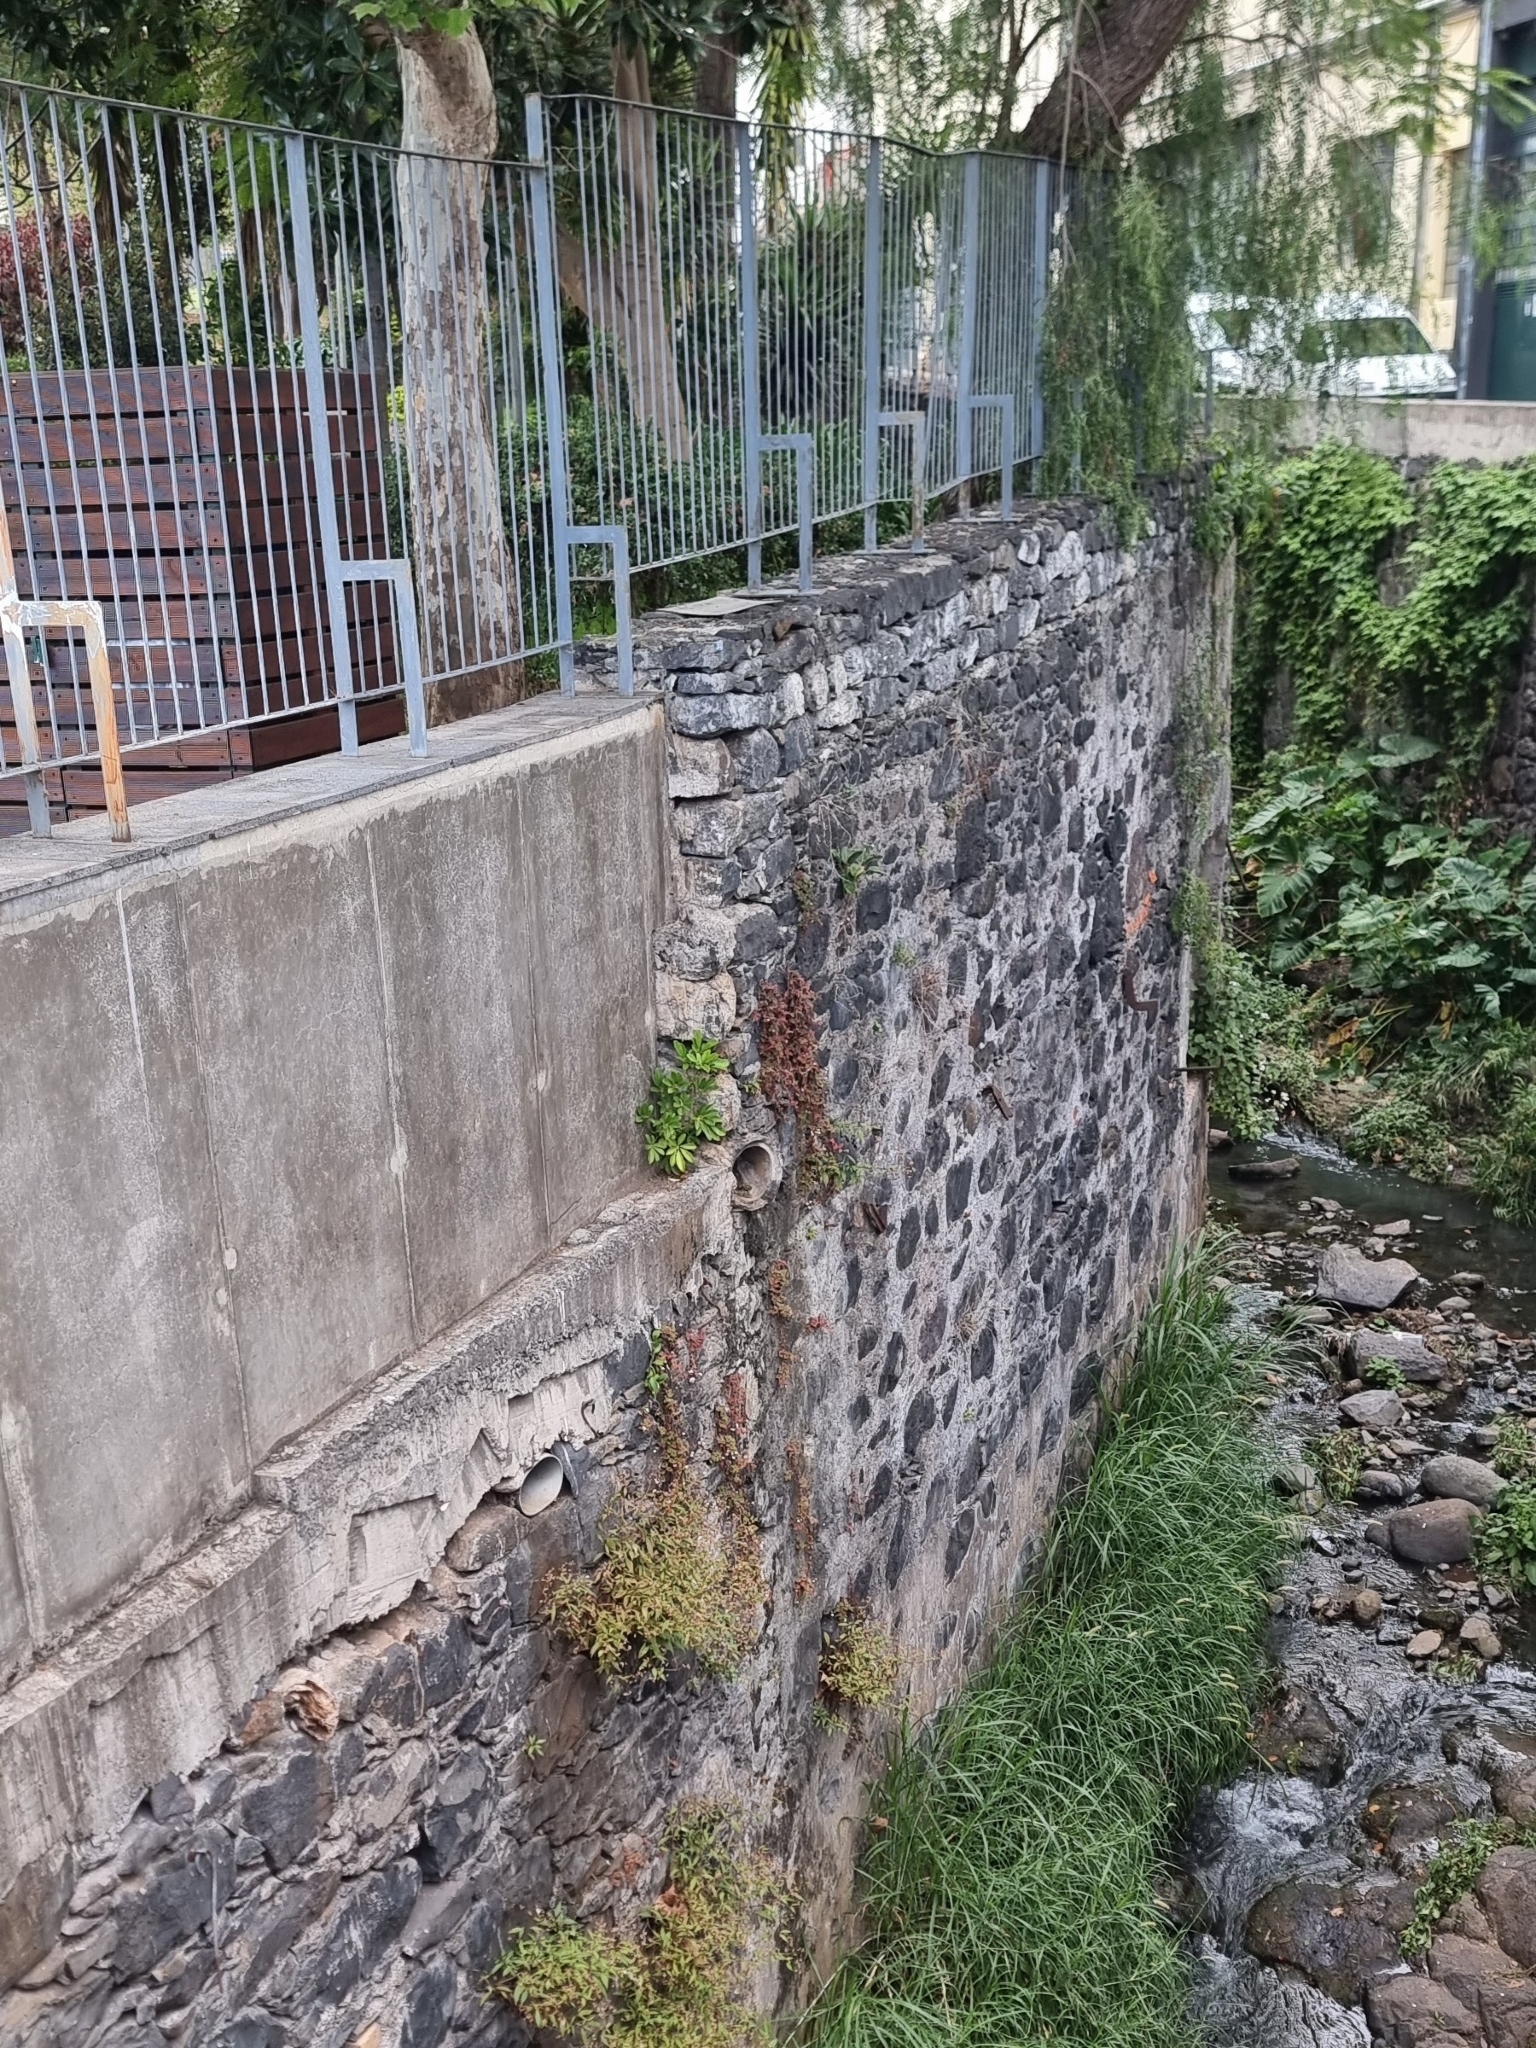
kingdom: Plantae
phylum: Tracheophyta
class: Magnoliopsida
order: Apiales
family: Araliaceae
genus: Heptapleurum
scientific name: Heptapleurum arboricola
